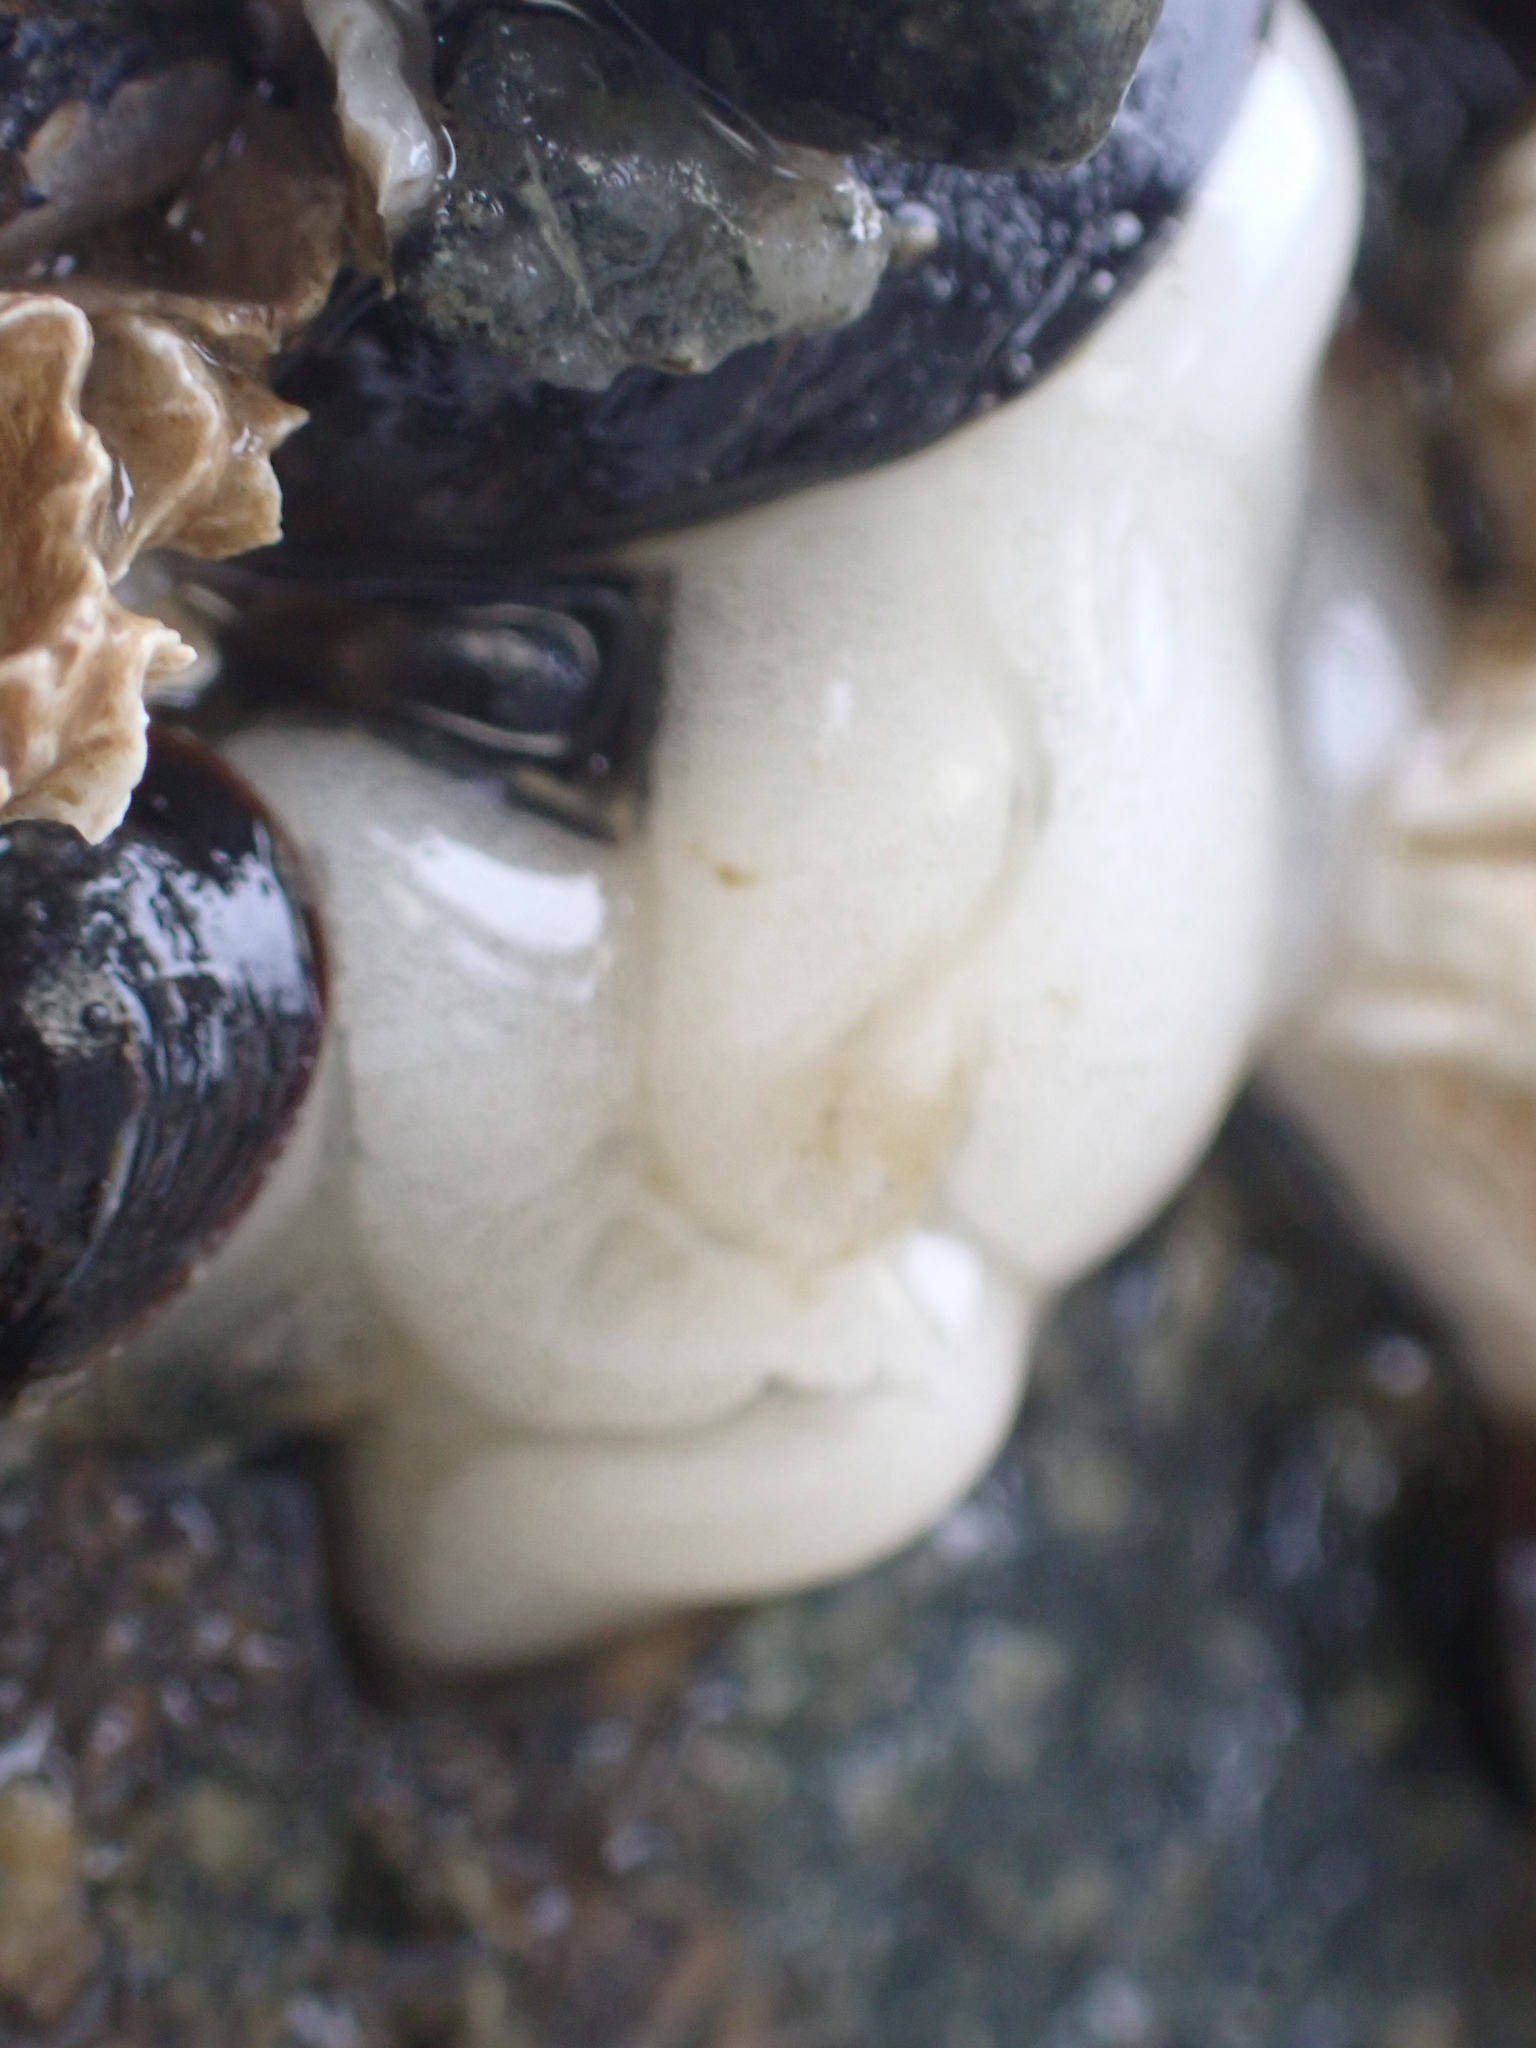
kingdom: Animalia
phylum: Mollusca
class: Gastropoda
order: Nudibranchia
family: Onchidorididae
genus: Onchidoris
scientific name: Onchidoris bilamellata
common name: Barnacle-eating onchidoris
